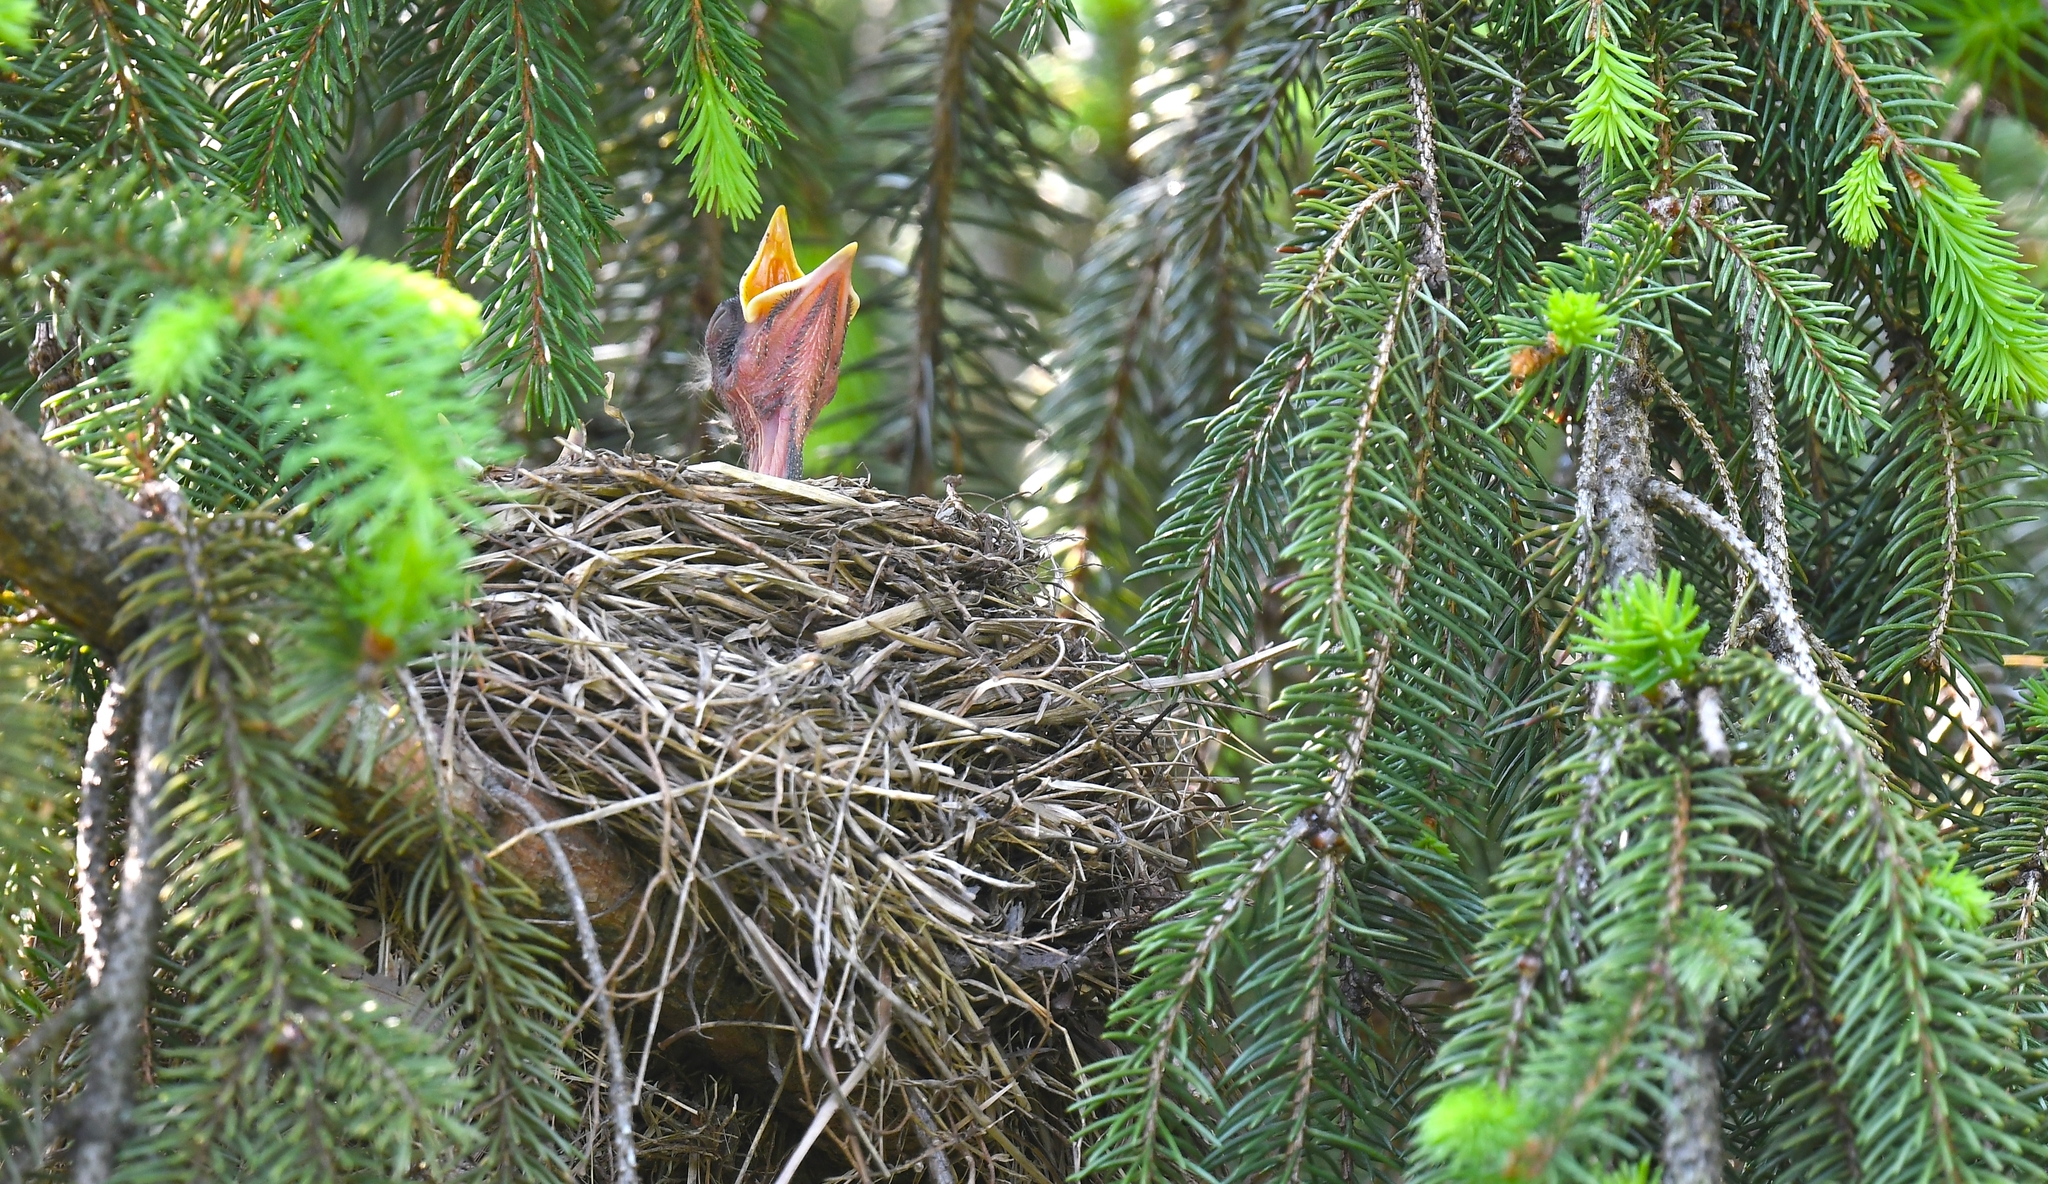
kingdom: Animalia
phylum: Chordata
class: Aves
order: Passeriformes
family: Turdidae
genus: Turdus
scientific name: Turdus migratorius
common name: American robin
